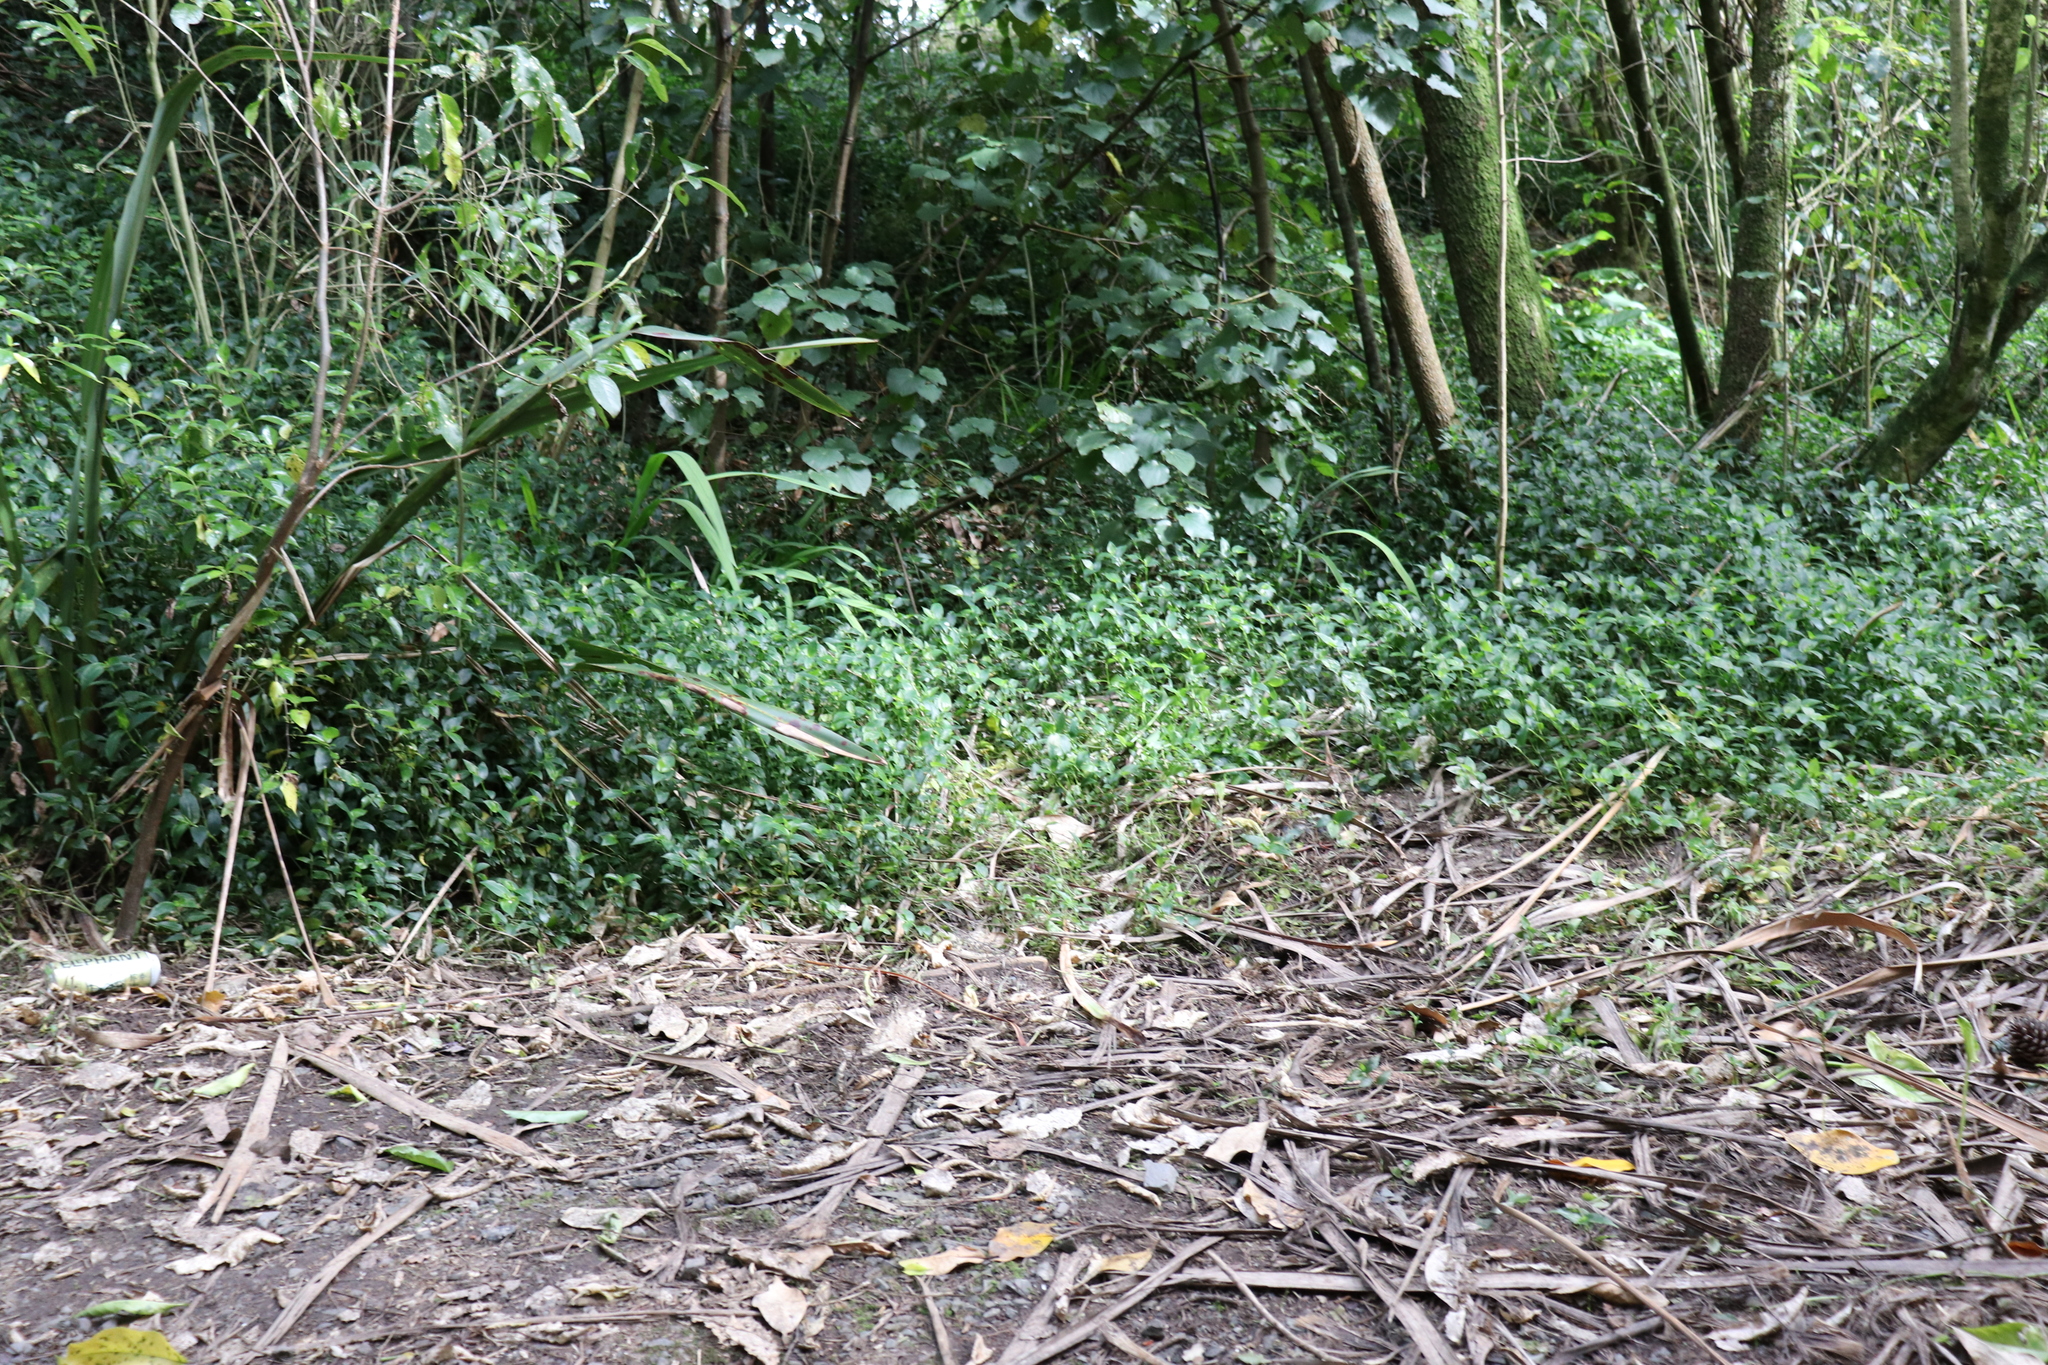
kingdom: Plantae
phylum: Tracheophyta
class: Liliopsida
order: Commelinales
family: Commelinaceae
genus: Tradescantia
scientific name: Tradescantia fluminensis
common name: Wandering-jew
